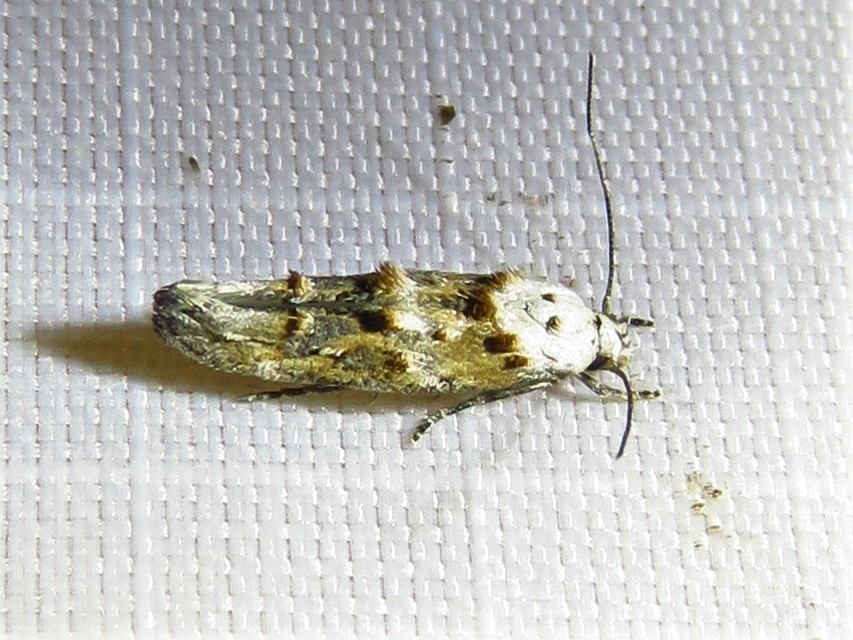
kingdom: Animalia
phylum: Arthropoda
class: Insecta
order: Lepidoptera
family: Momphidae
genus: Mompha
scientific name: Mompha albocapitella
